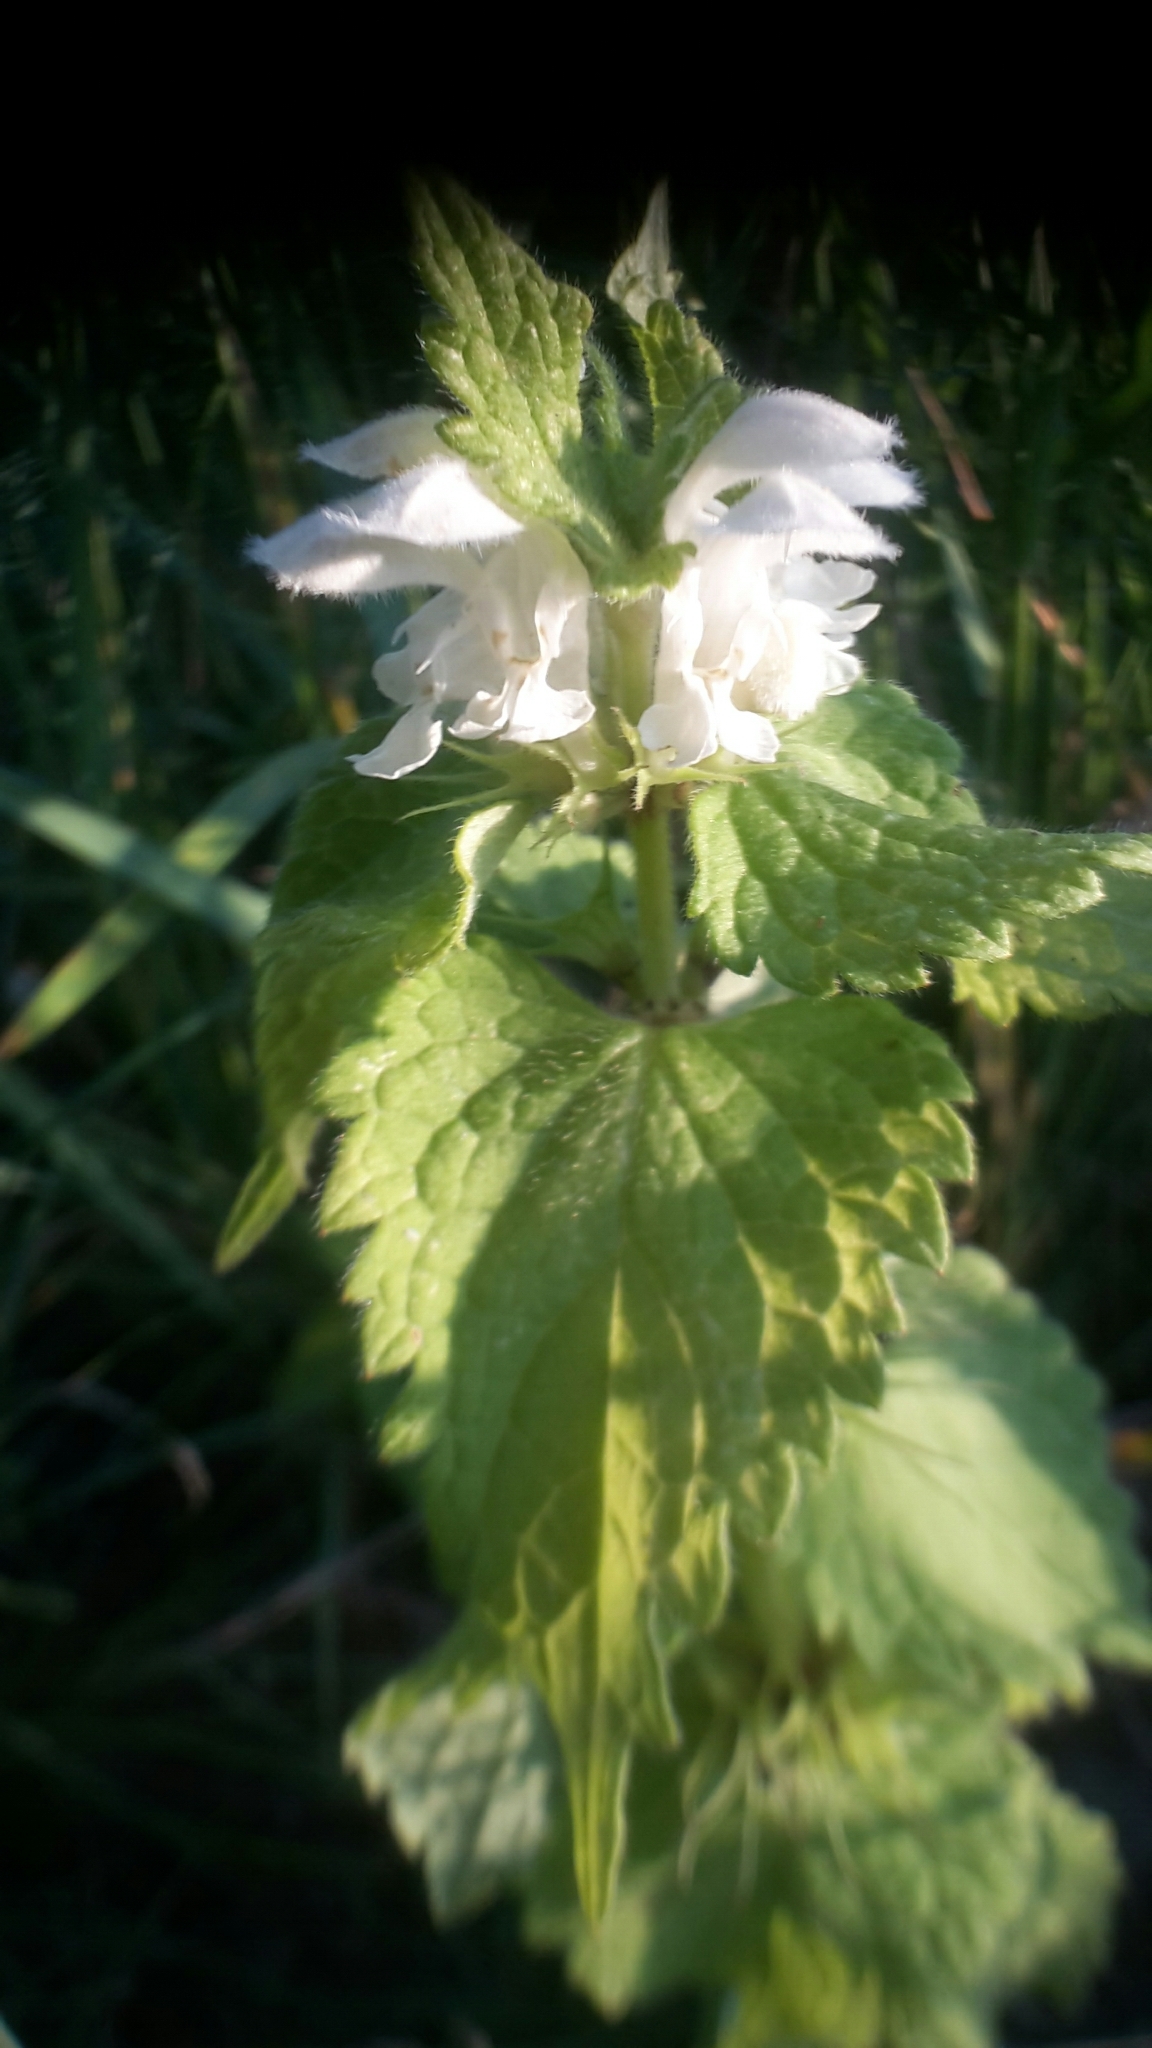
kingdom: Plantae
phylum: Tracheophyta
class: Magnoliopsida
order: Lamiales
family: Lamiaceae
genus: Lamium
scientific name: Lamium album
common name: White dead-nettle
